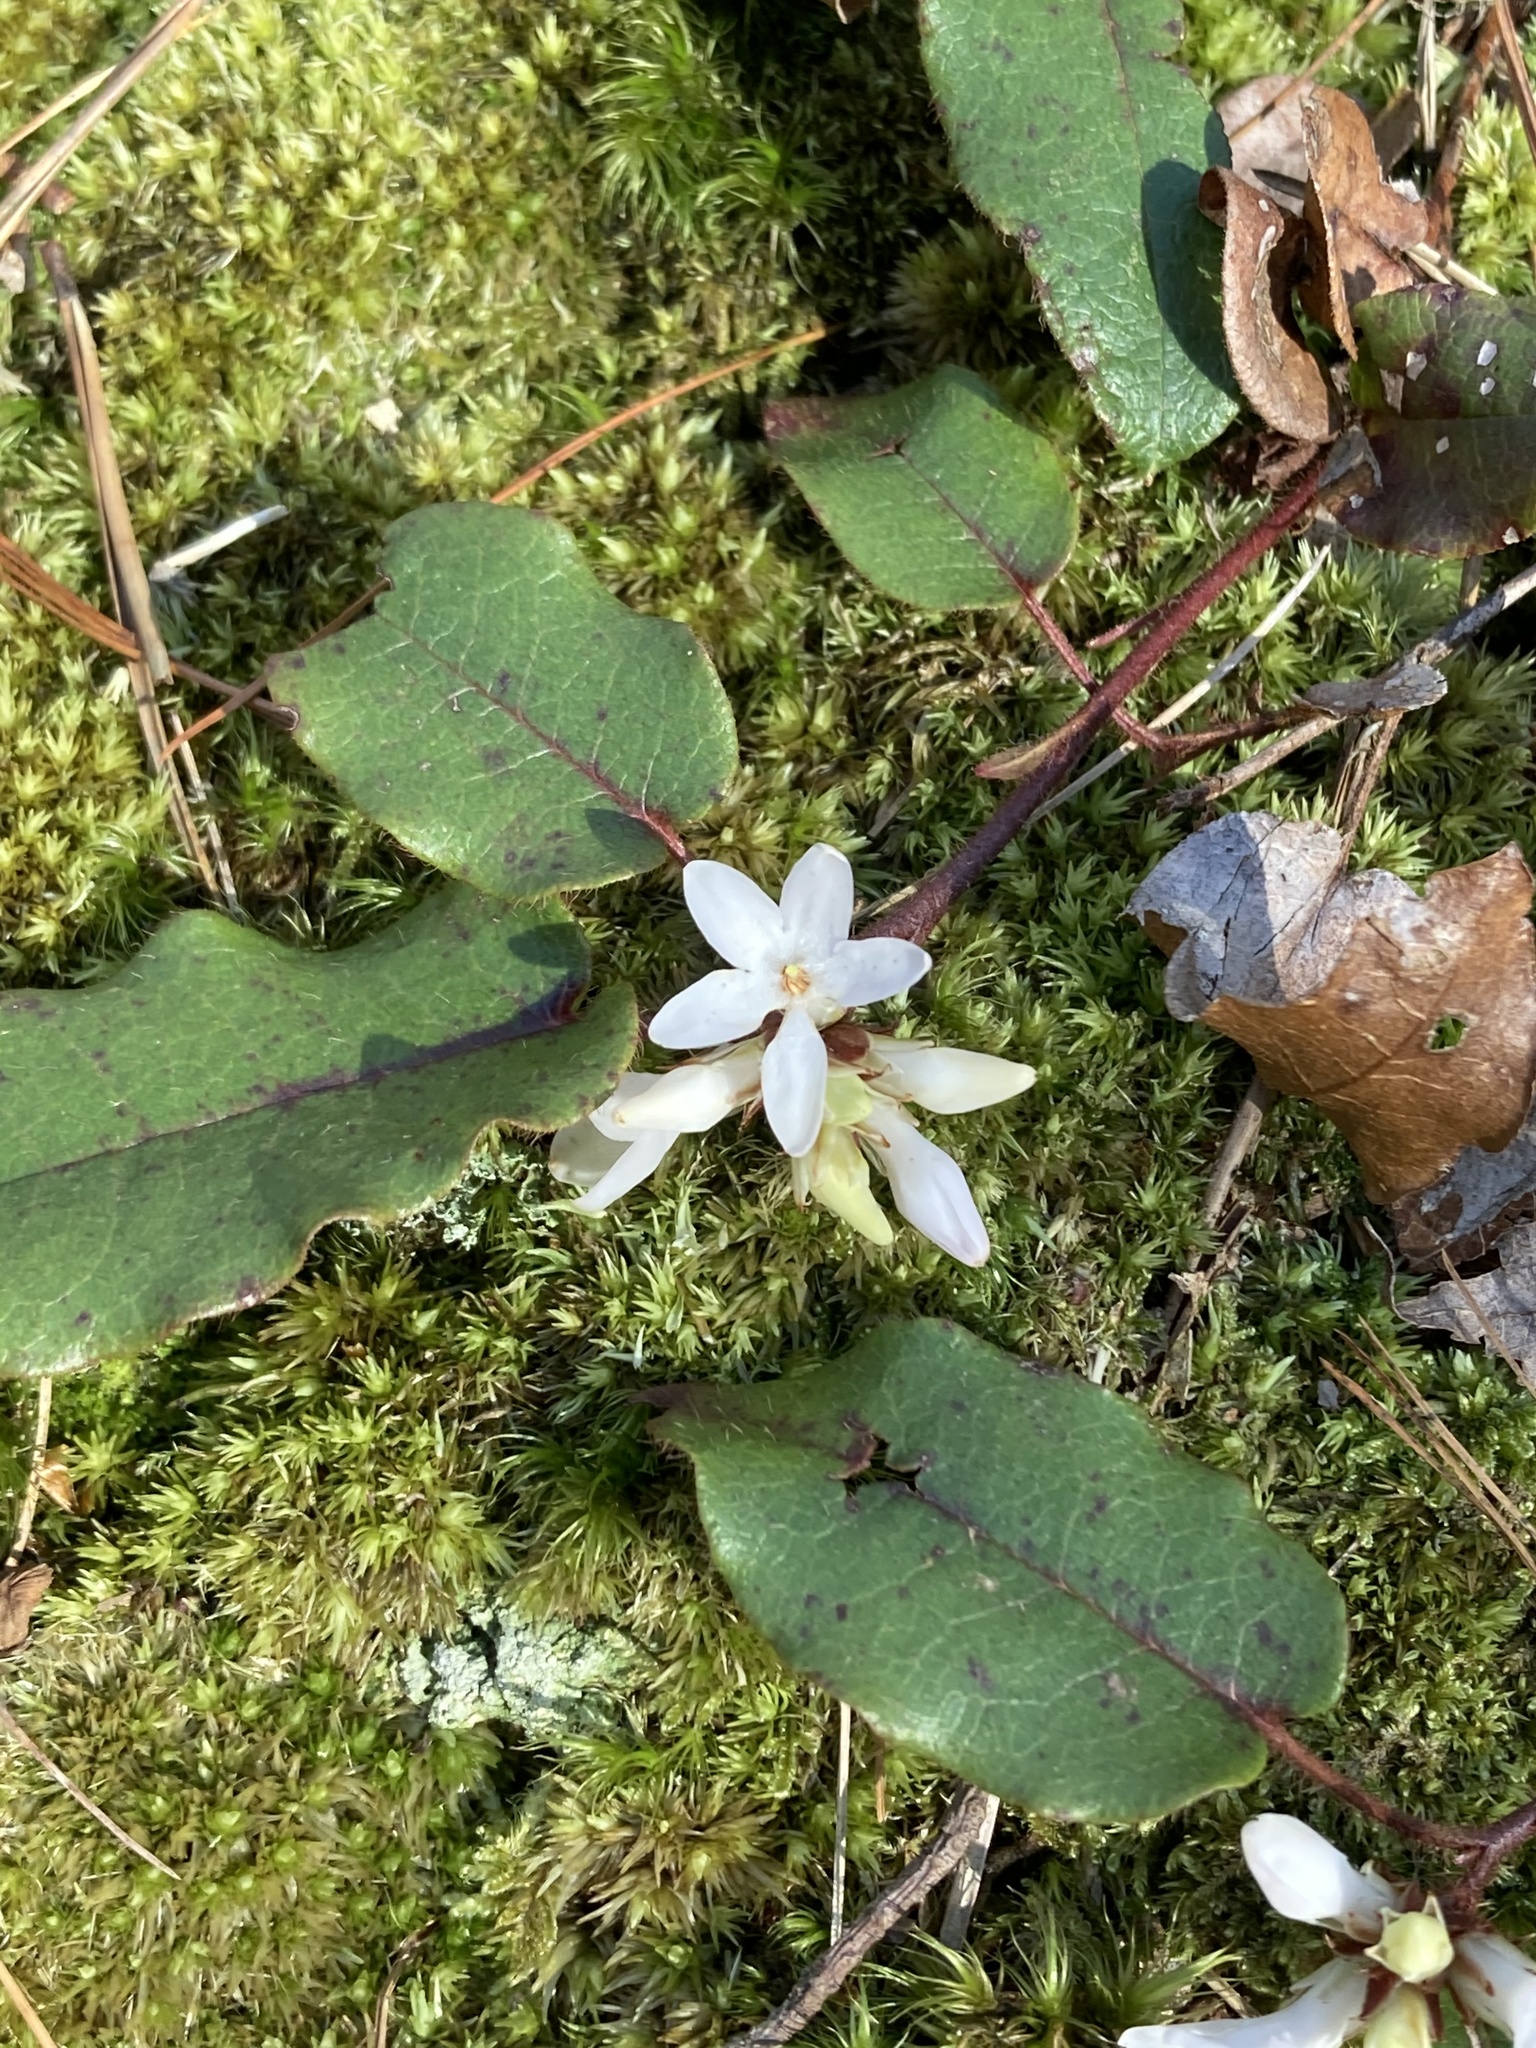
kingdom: Plantae
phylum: Tracheophyta
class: Magnoliopsida
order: Ericales
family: Ericaceae
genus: Epigaea
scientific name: Epigaea repens
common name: Gravelroot
